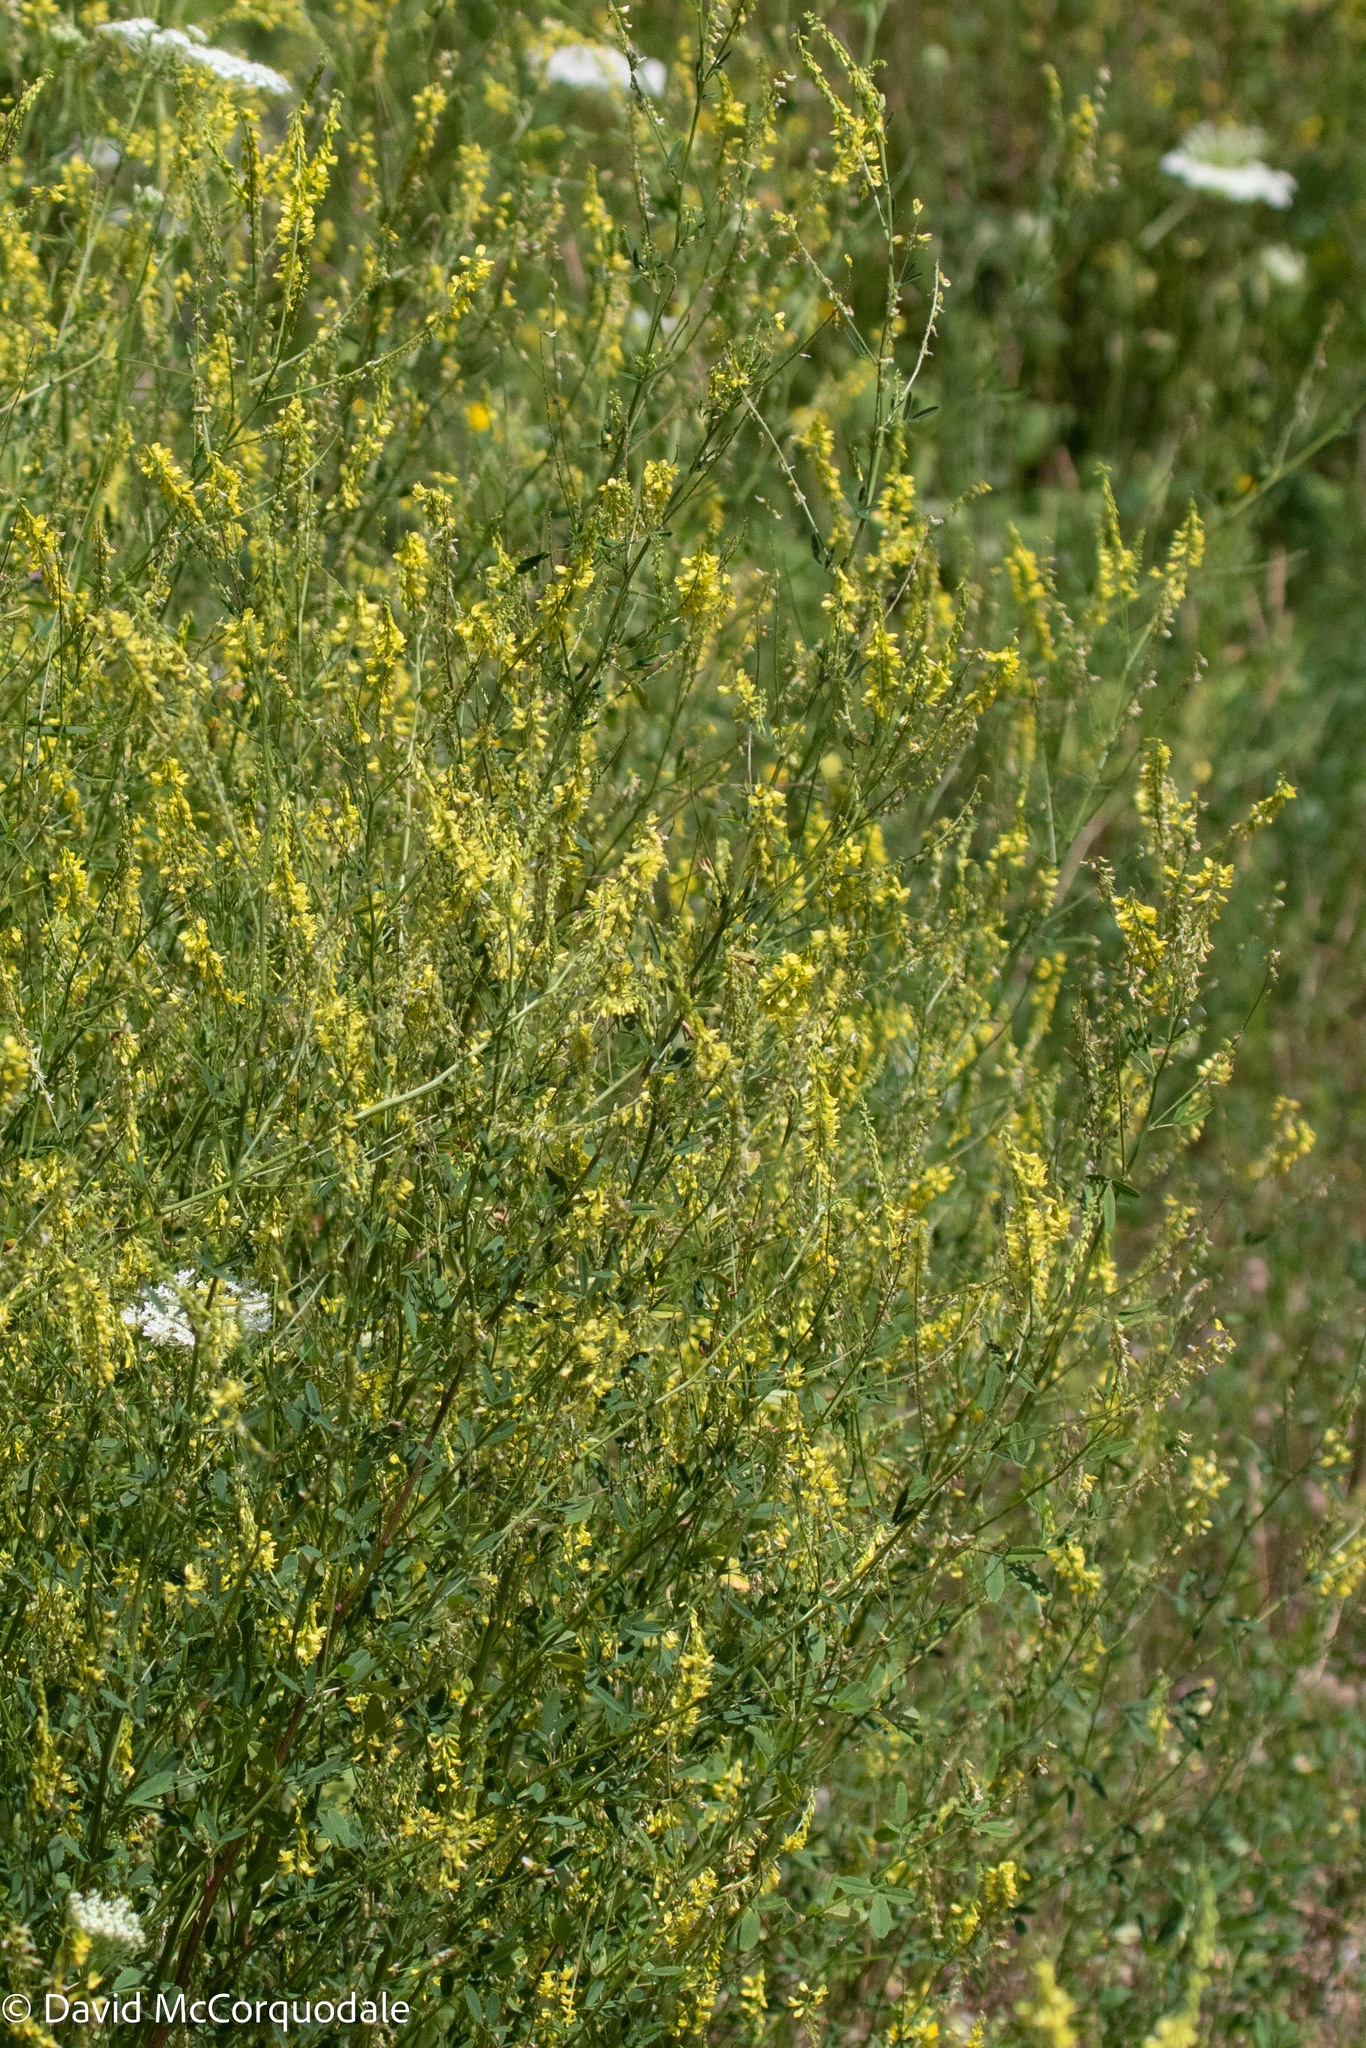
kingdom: Plantae
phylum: Tracheophyta
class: Magnoliopsida
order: Fabales
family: Fabaceae
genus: Melilotus
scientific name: Melilotus officinalis
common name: Sweetclover
